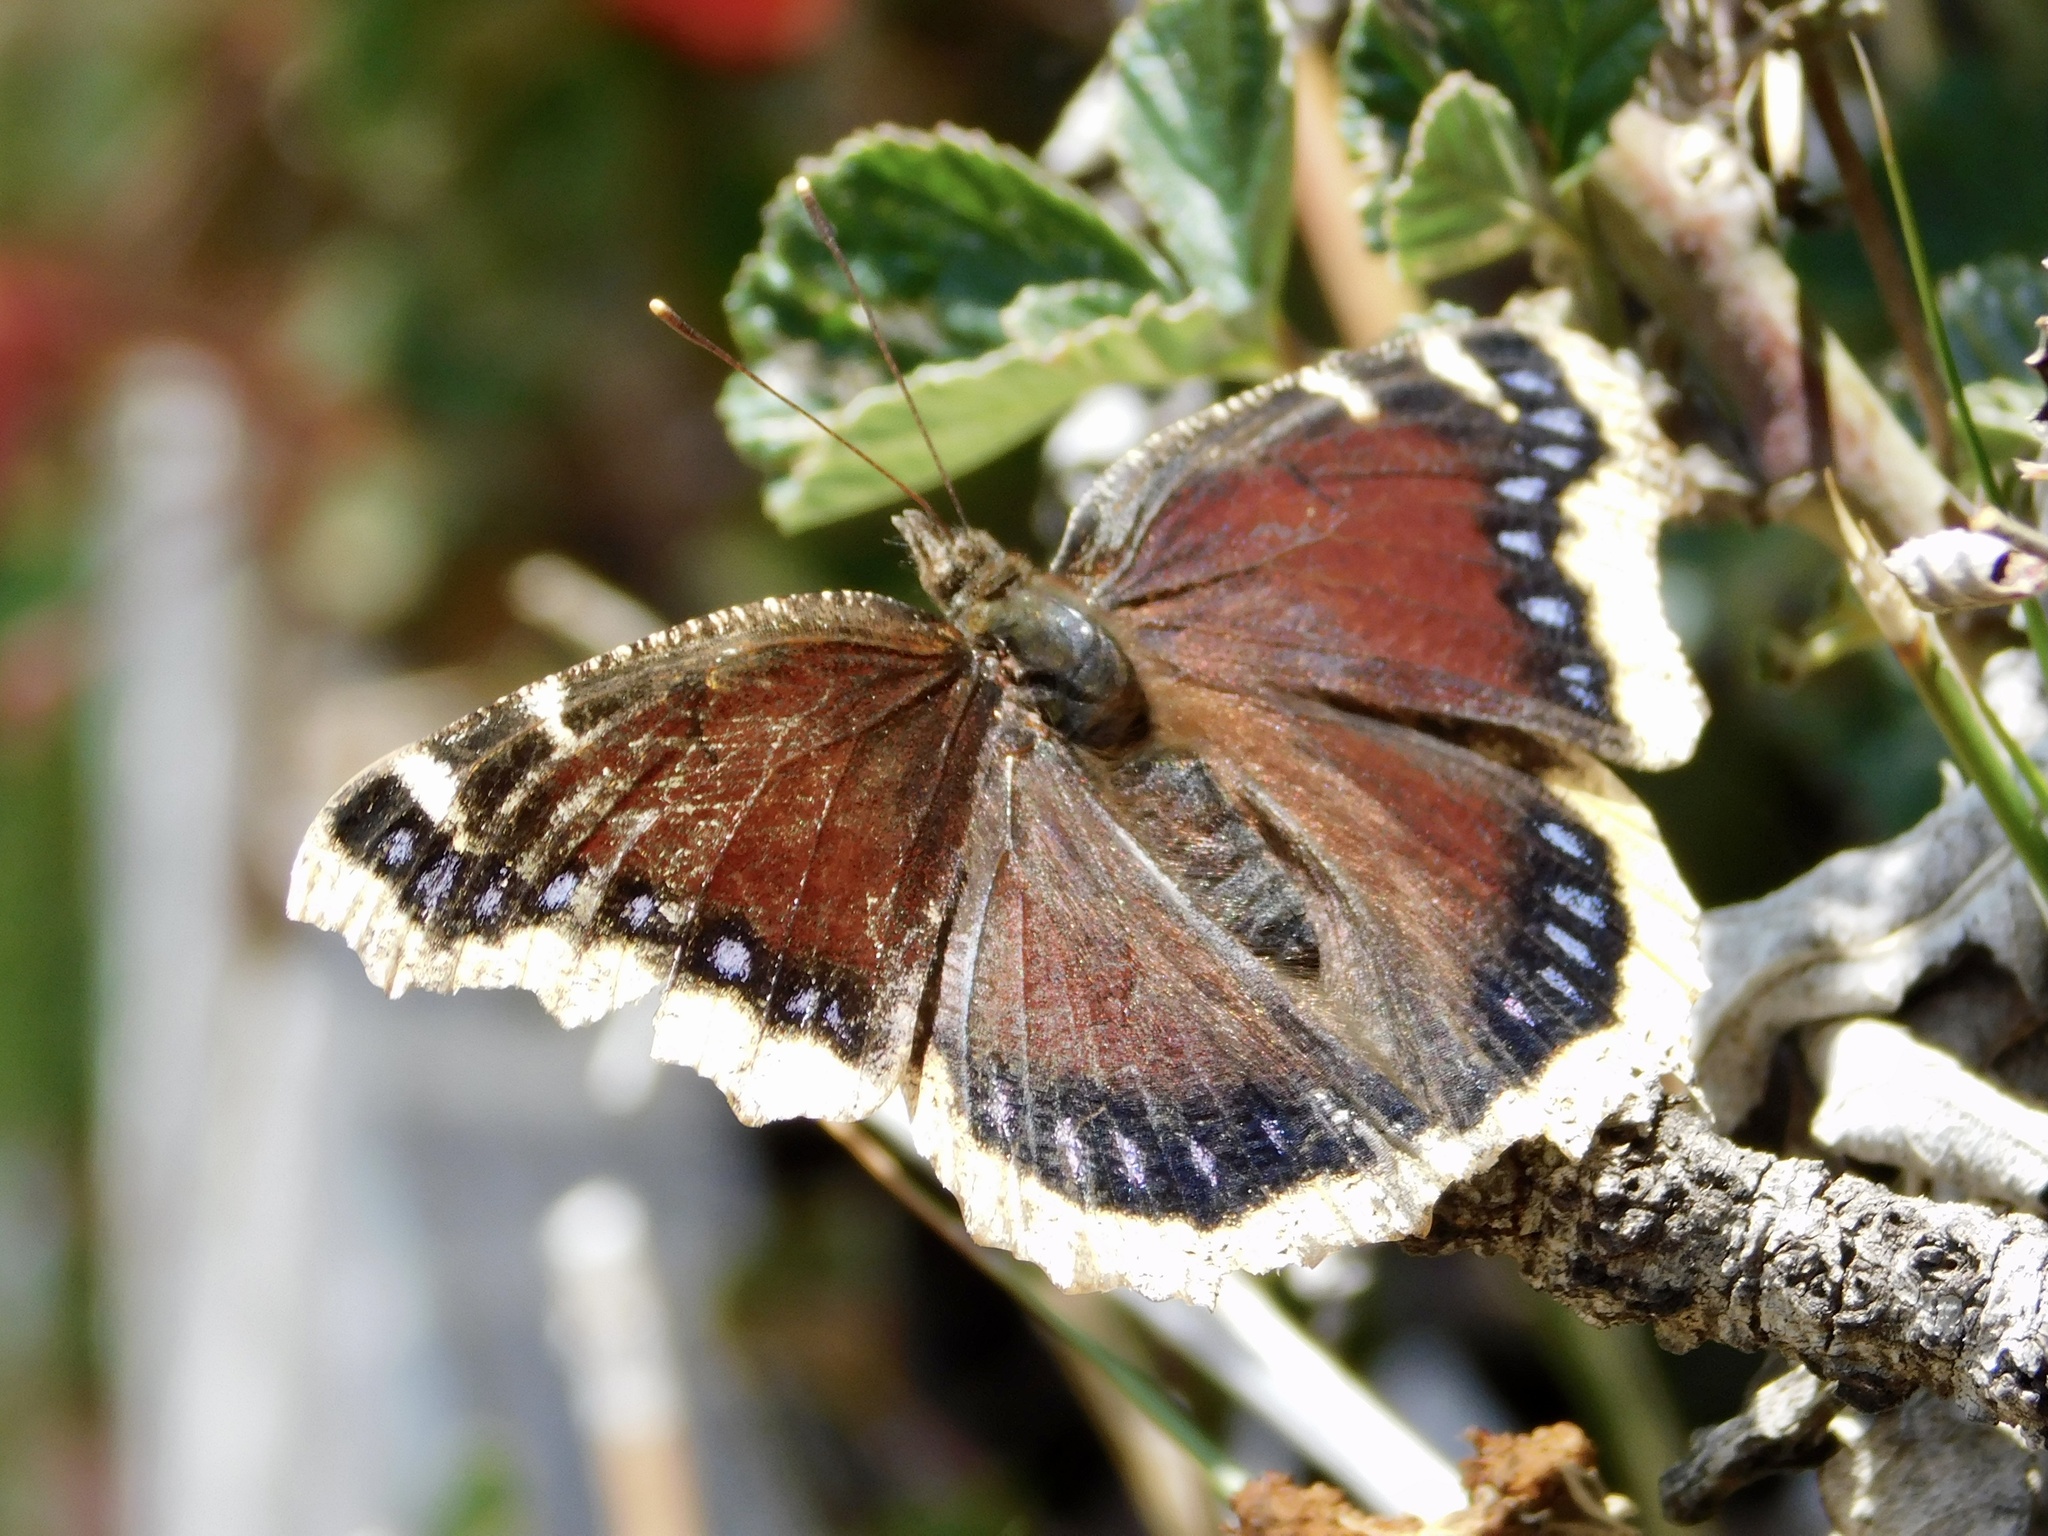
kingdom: Animalia
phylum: Arthropoda
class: Insecta
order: Lepidoptera
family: Nymphalidae
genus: Nymphalis
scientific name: Nymphalis antiopa
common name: Camberwell beauty
